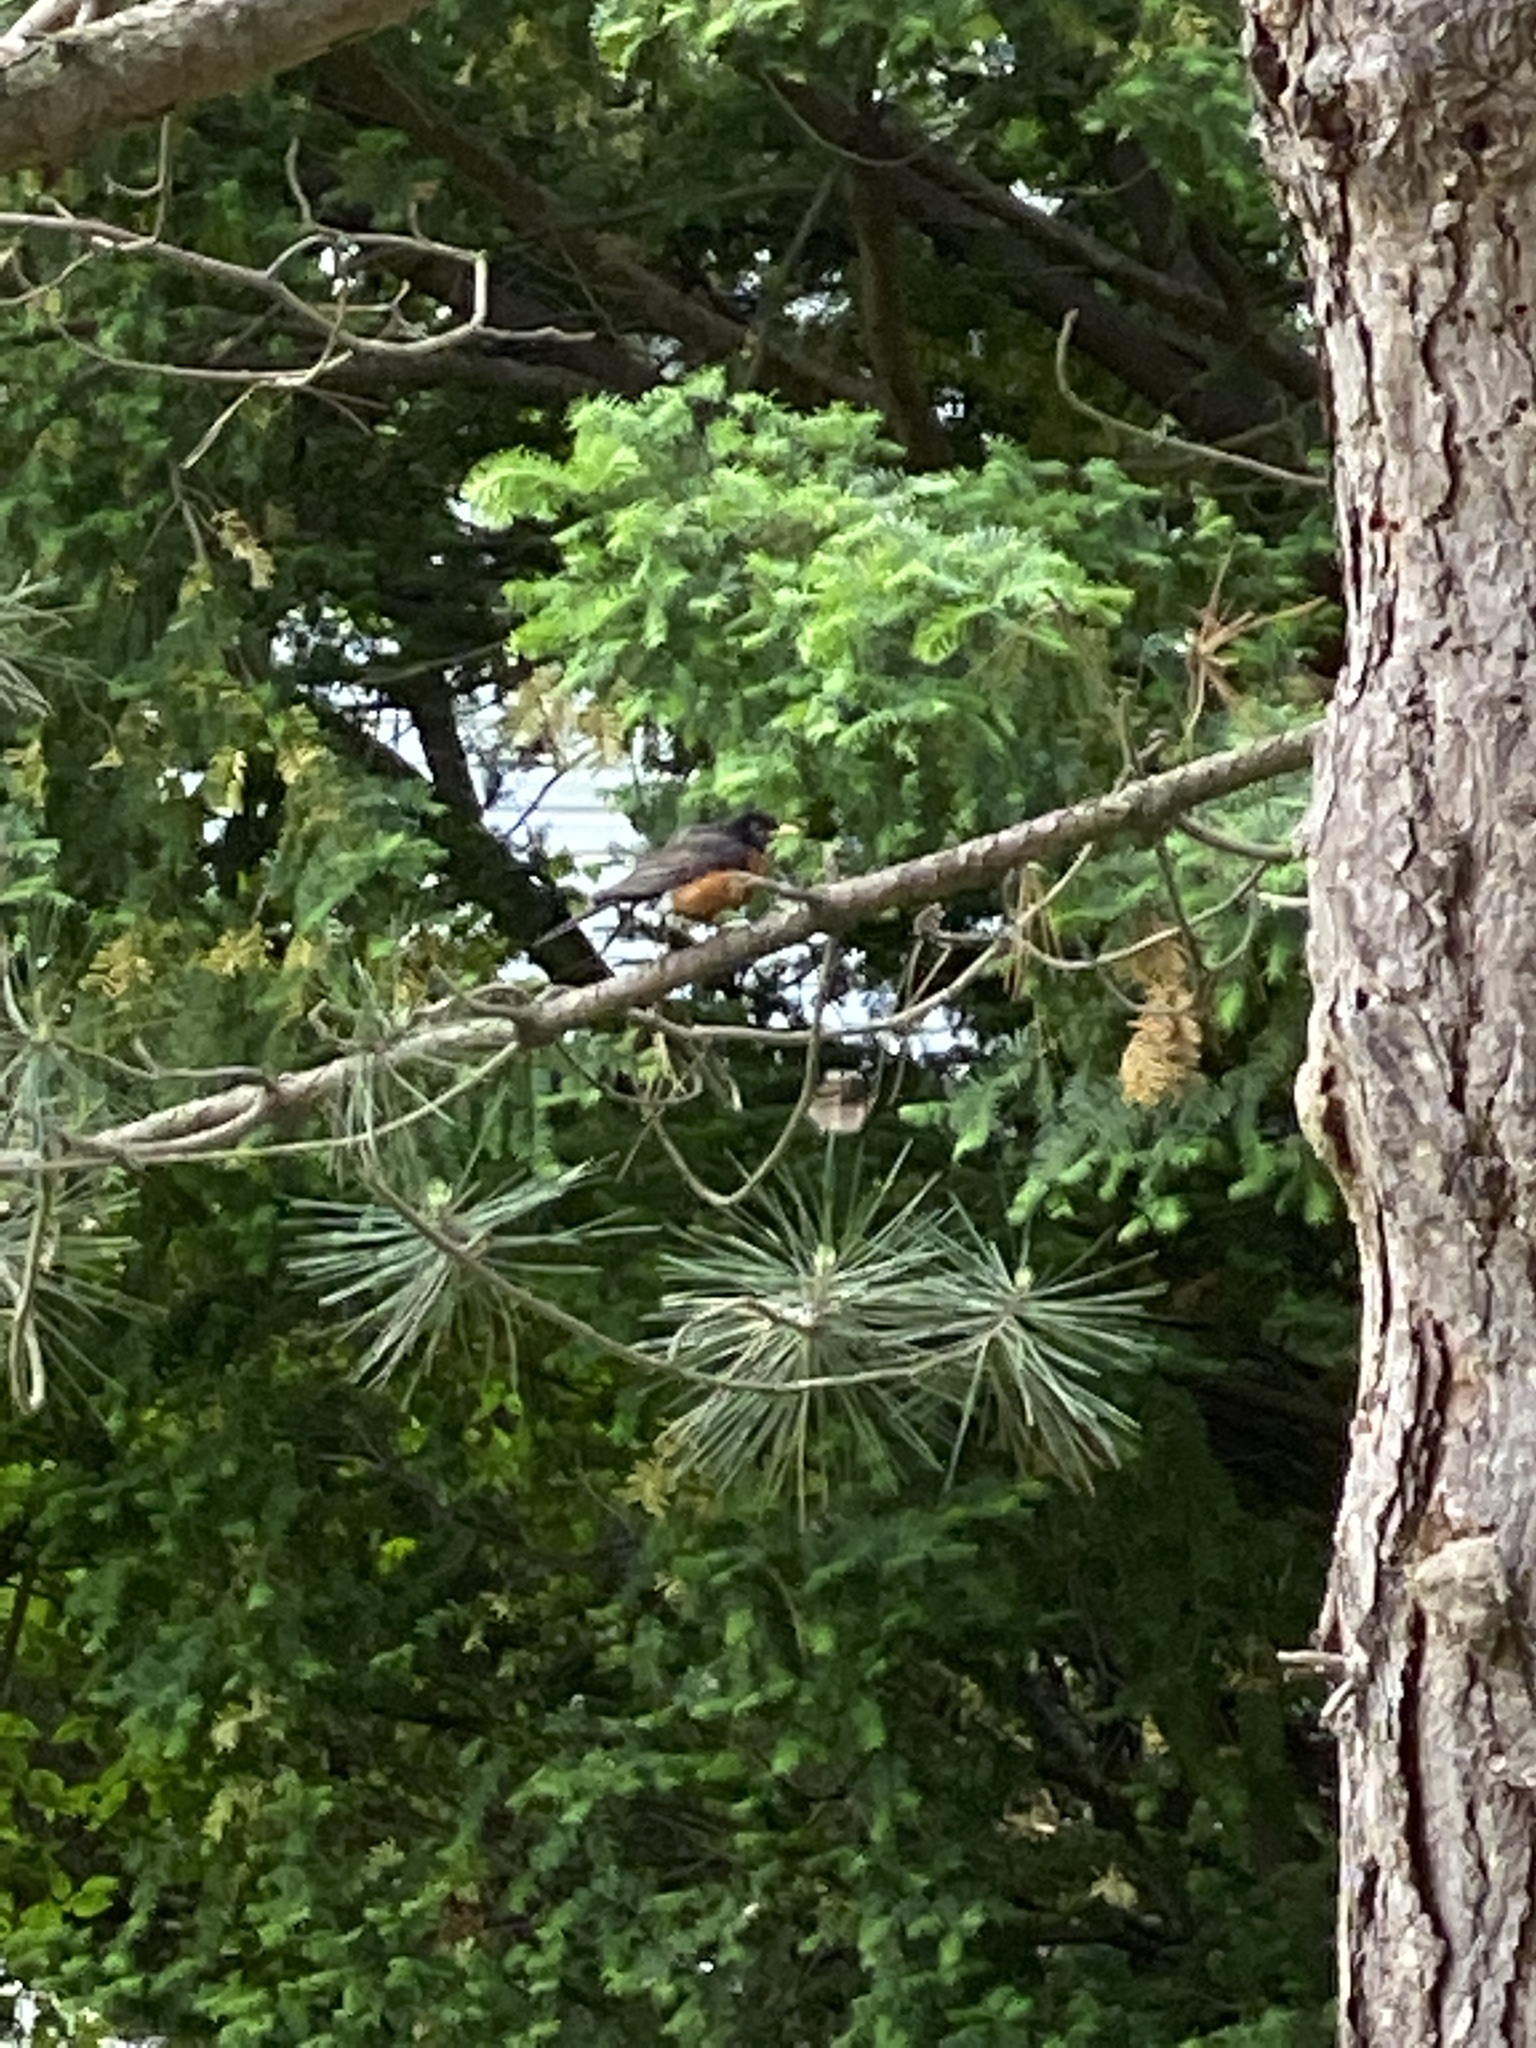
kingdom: Animalia
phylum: Chordata
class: Aves
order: Passeriformes
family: Turdidae
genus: Turdus
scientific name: Turdus migratorius
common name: American robin
